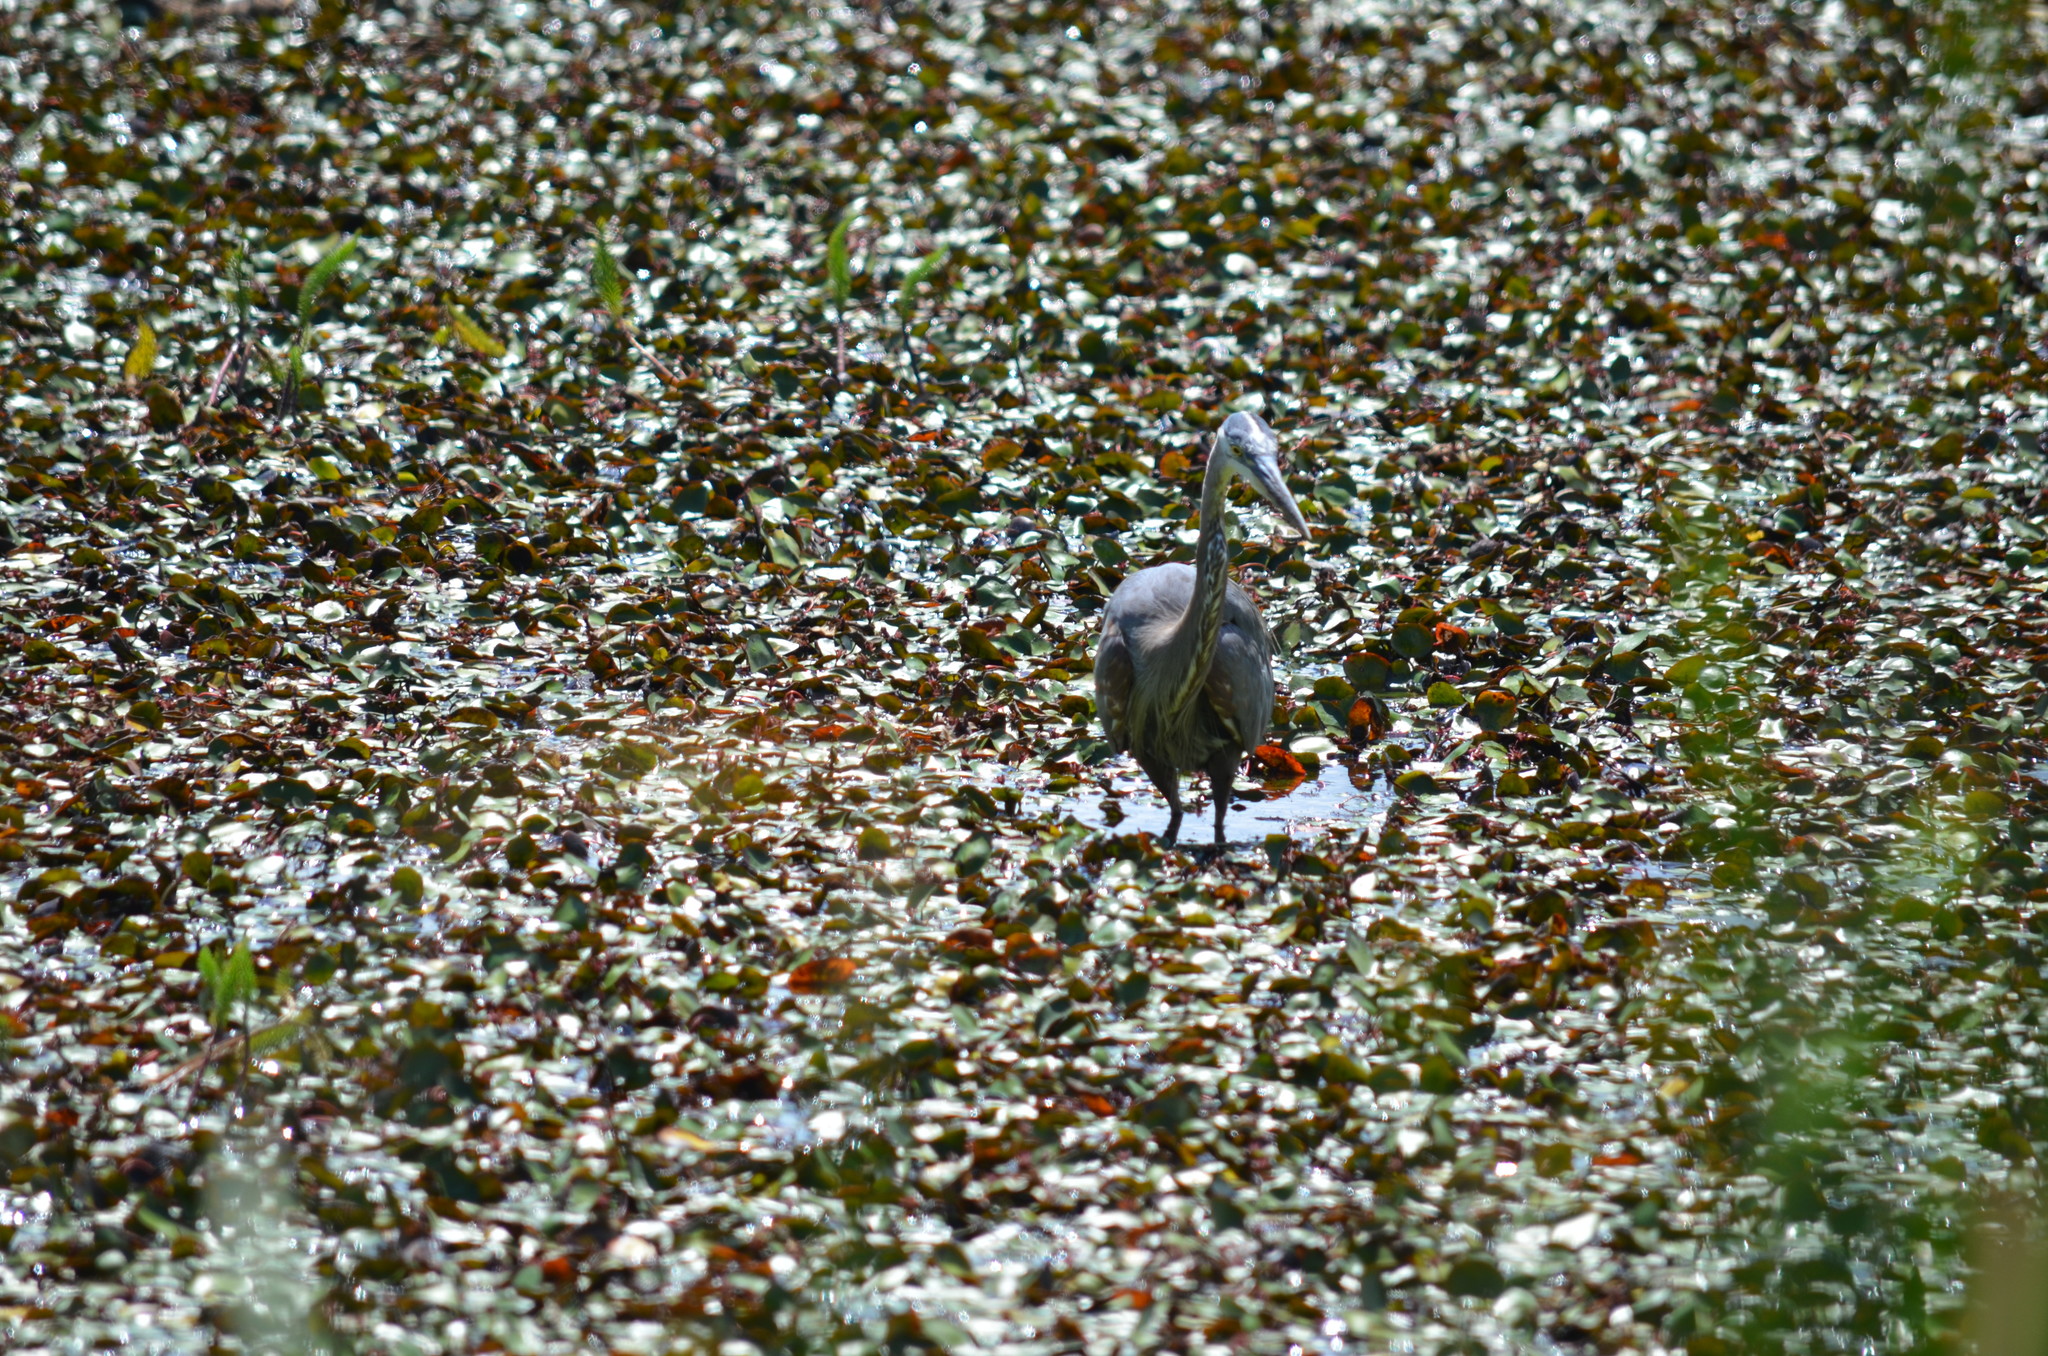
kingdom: Animalia
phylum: Chordata
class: Aves
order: Pelecaniformes
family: Ardeidae
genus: Ardea
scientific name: Ardea herodias
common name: Great blue heron
